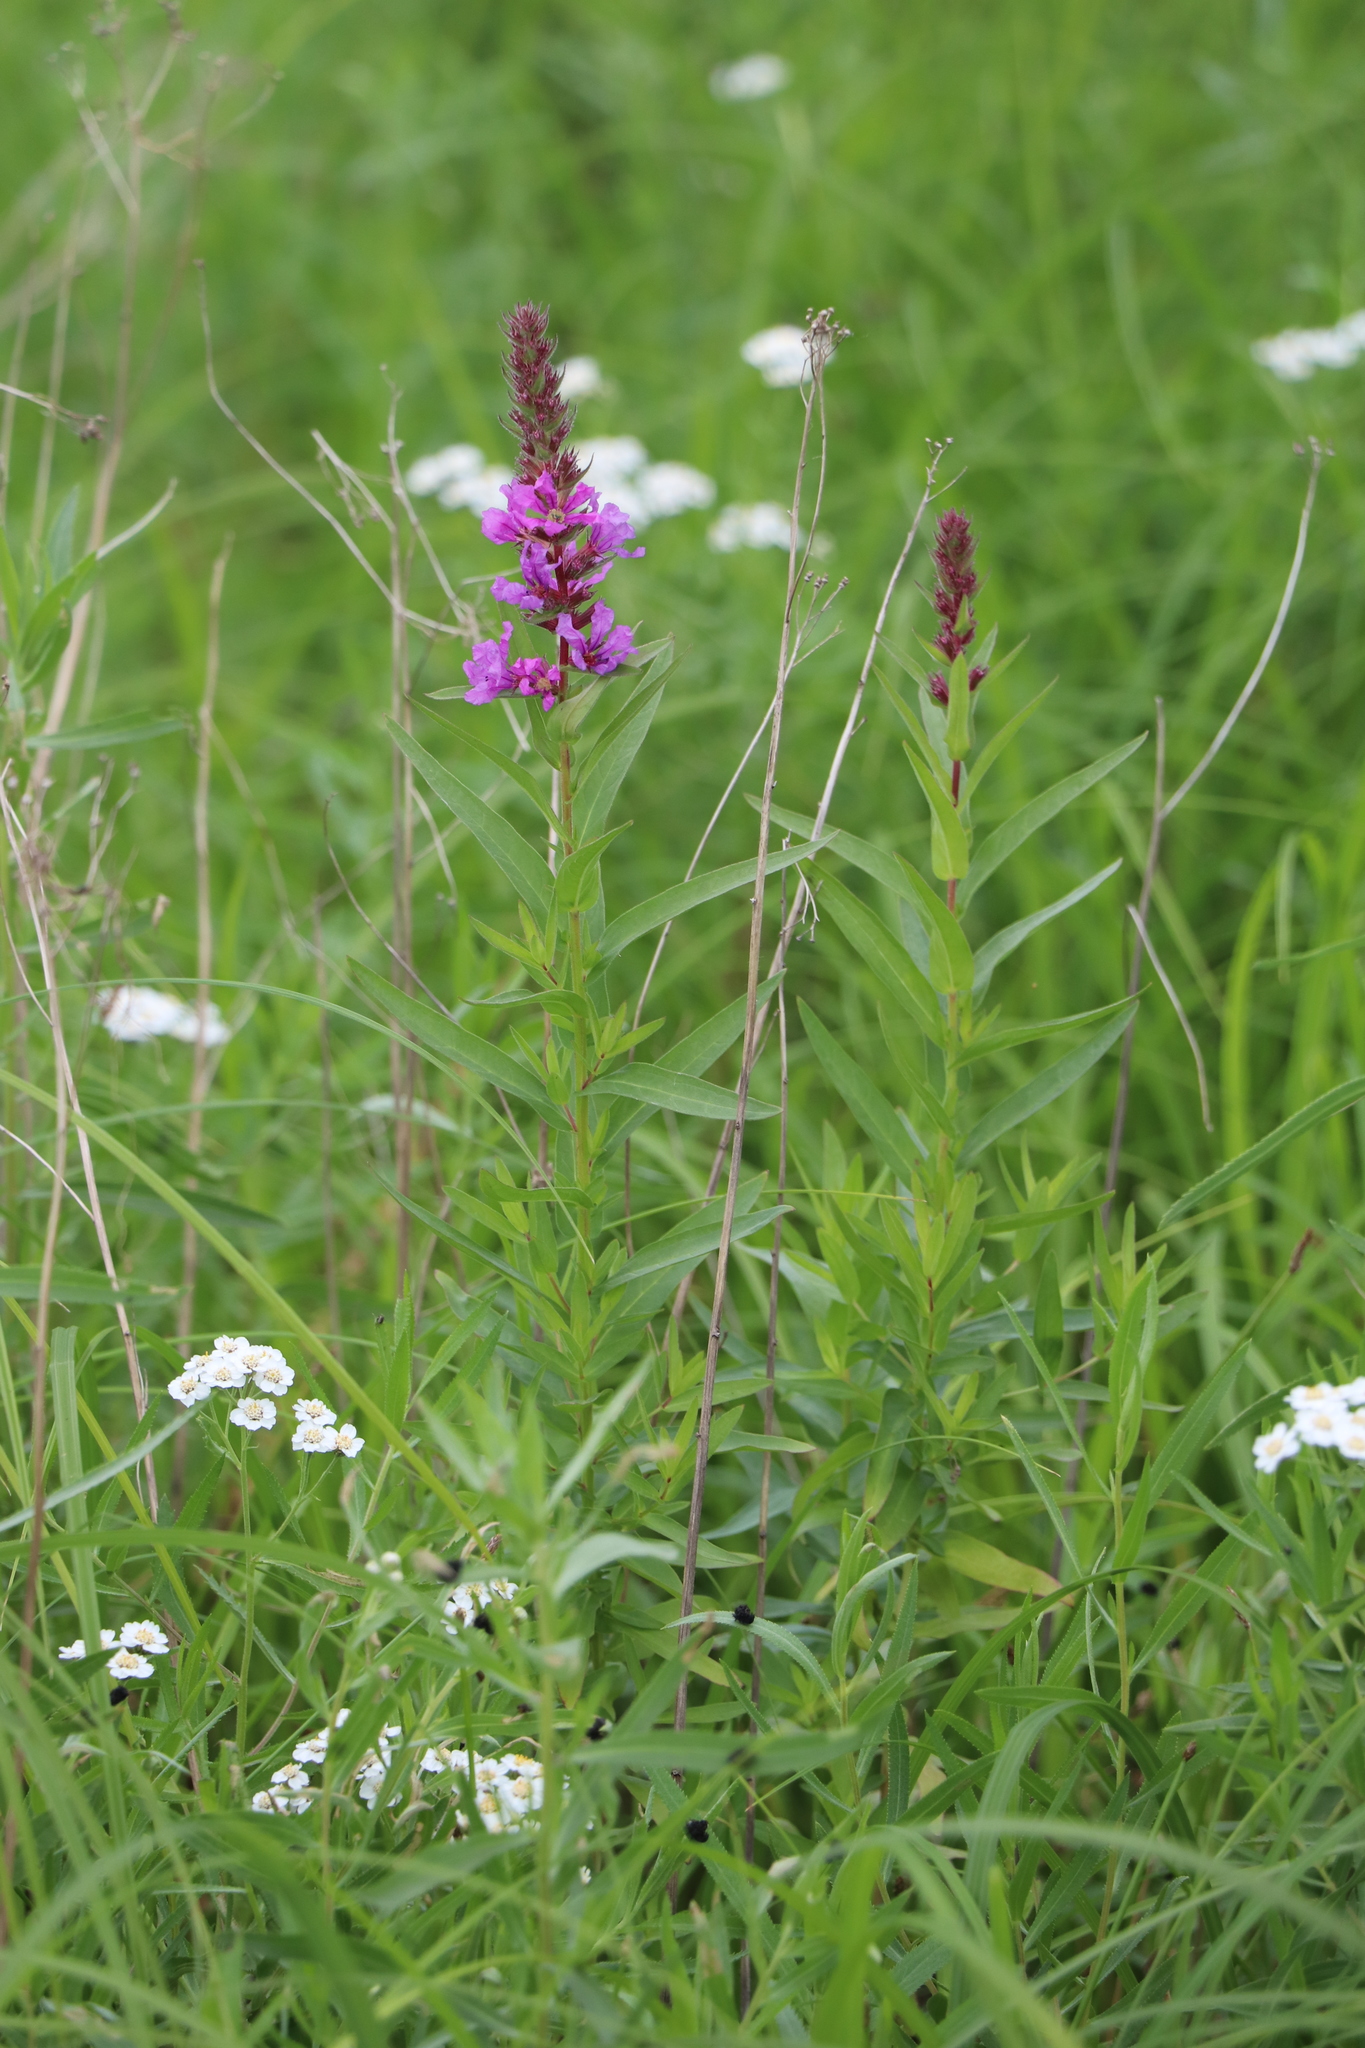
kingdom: Plantae
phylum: Tracheophyta
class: Magnoliopsida
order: Myrtales
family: Lythraceae
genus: Lythrum
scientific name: Lythrum salicaria
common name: Purple loosestrife
